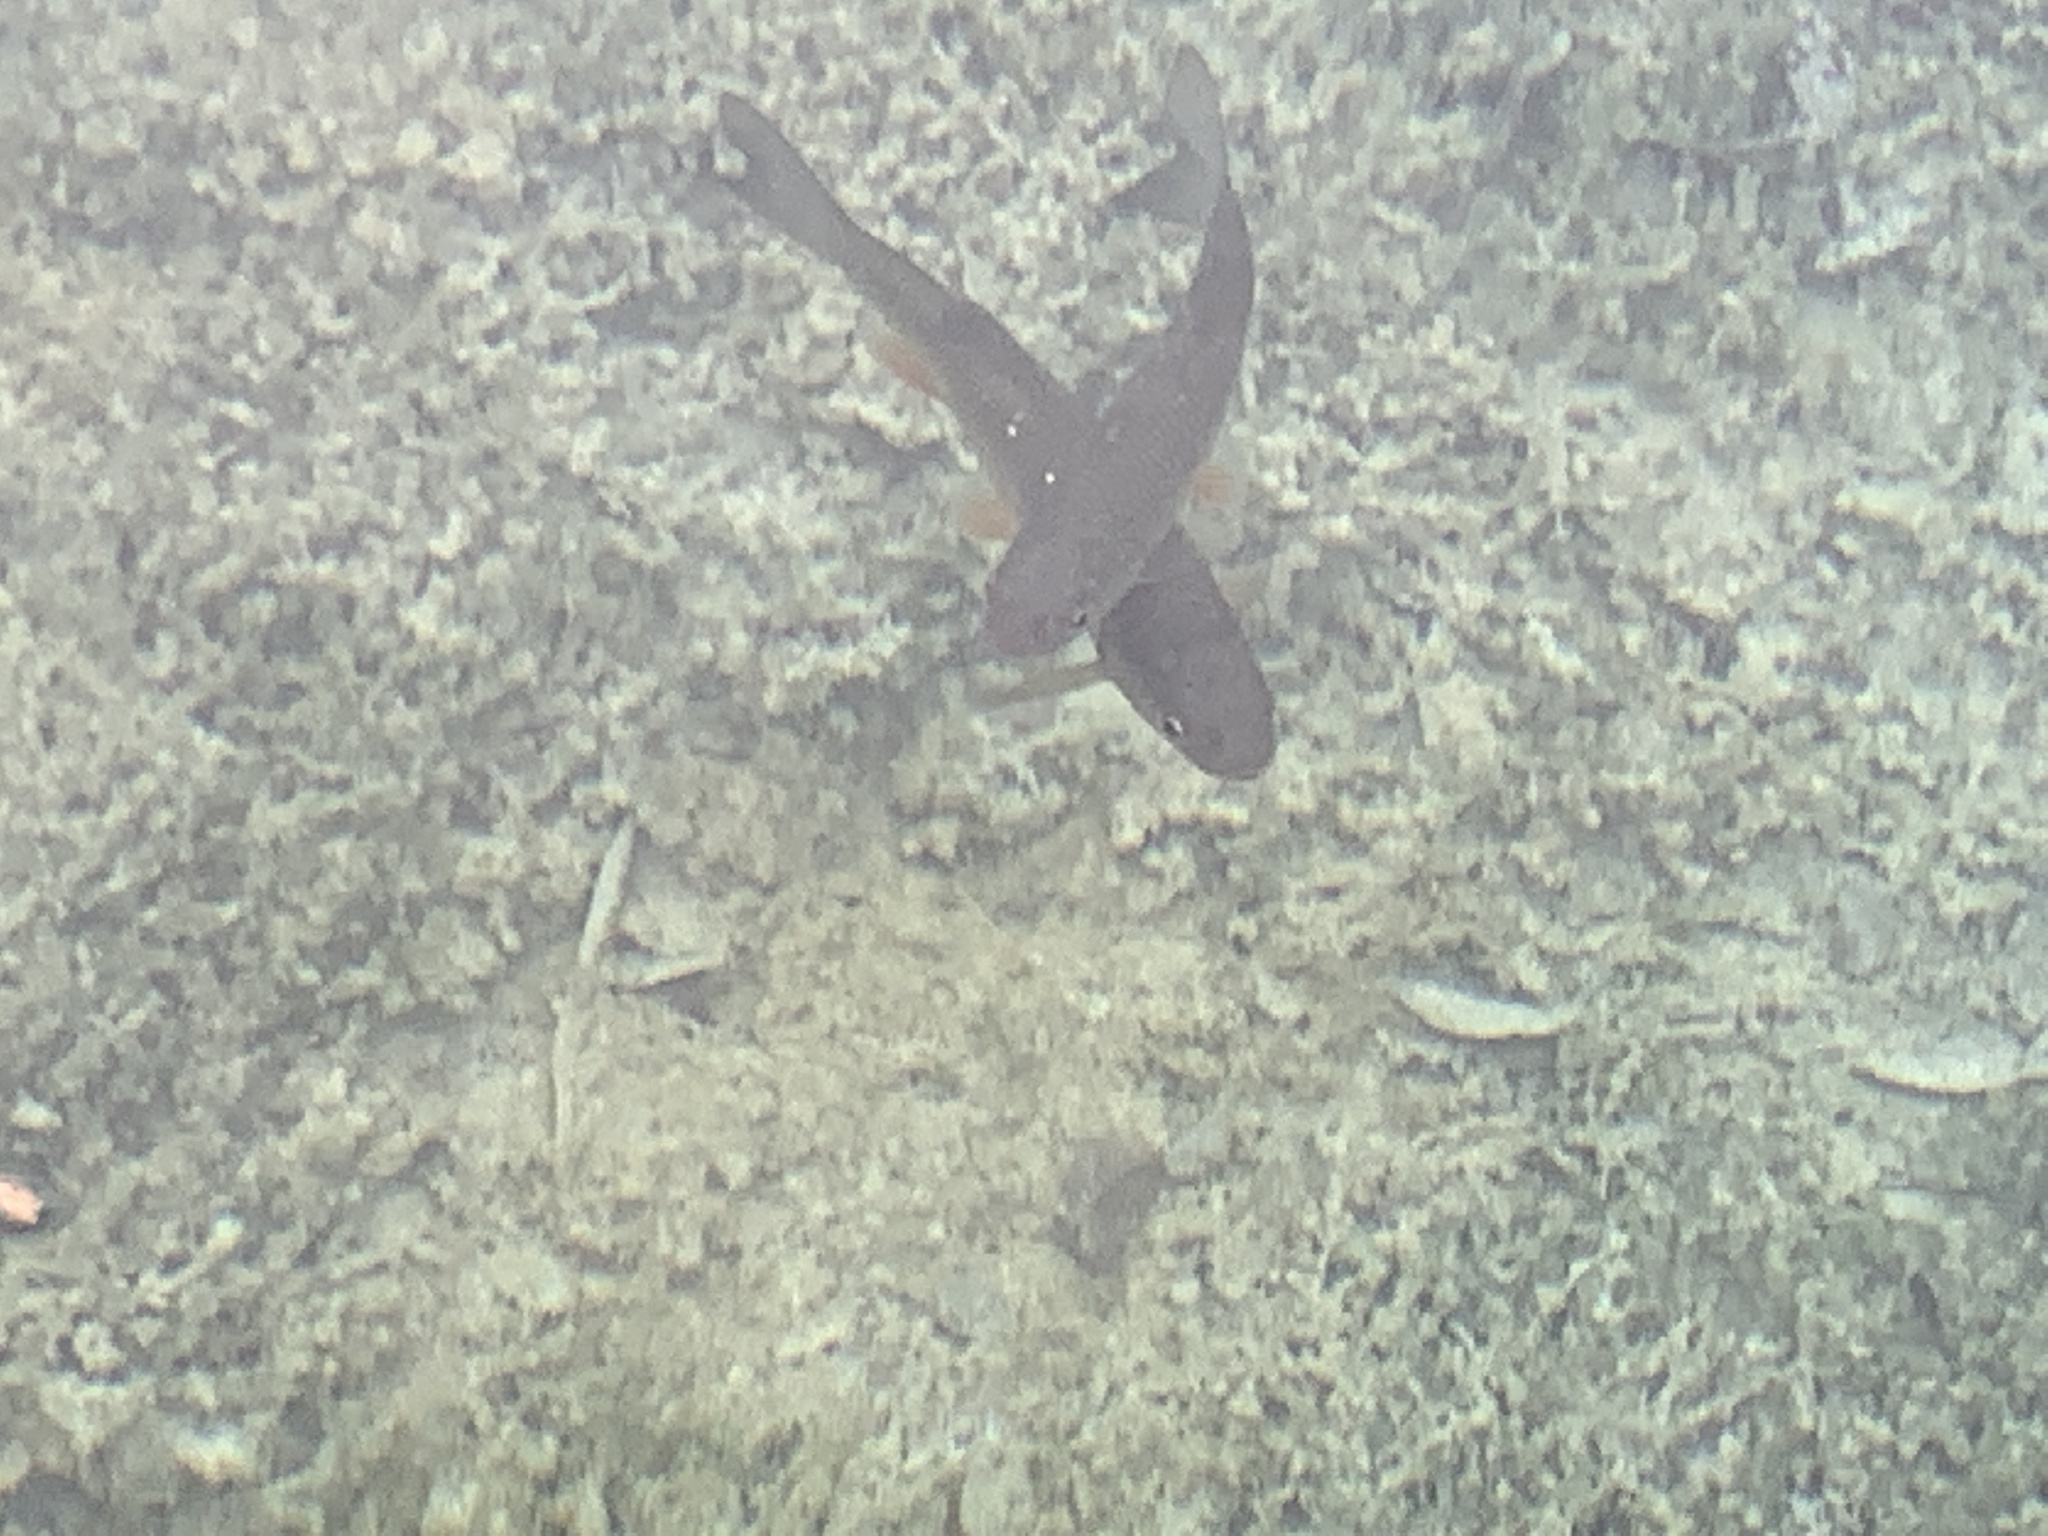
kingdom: Animalia
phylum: Chordata
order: Cypriniformes
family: Cyprinidae
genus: Squalius
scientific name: Squalius cephalus
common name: Chub
